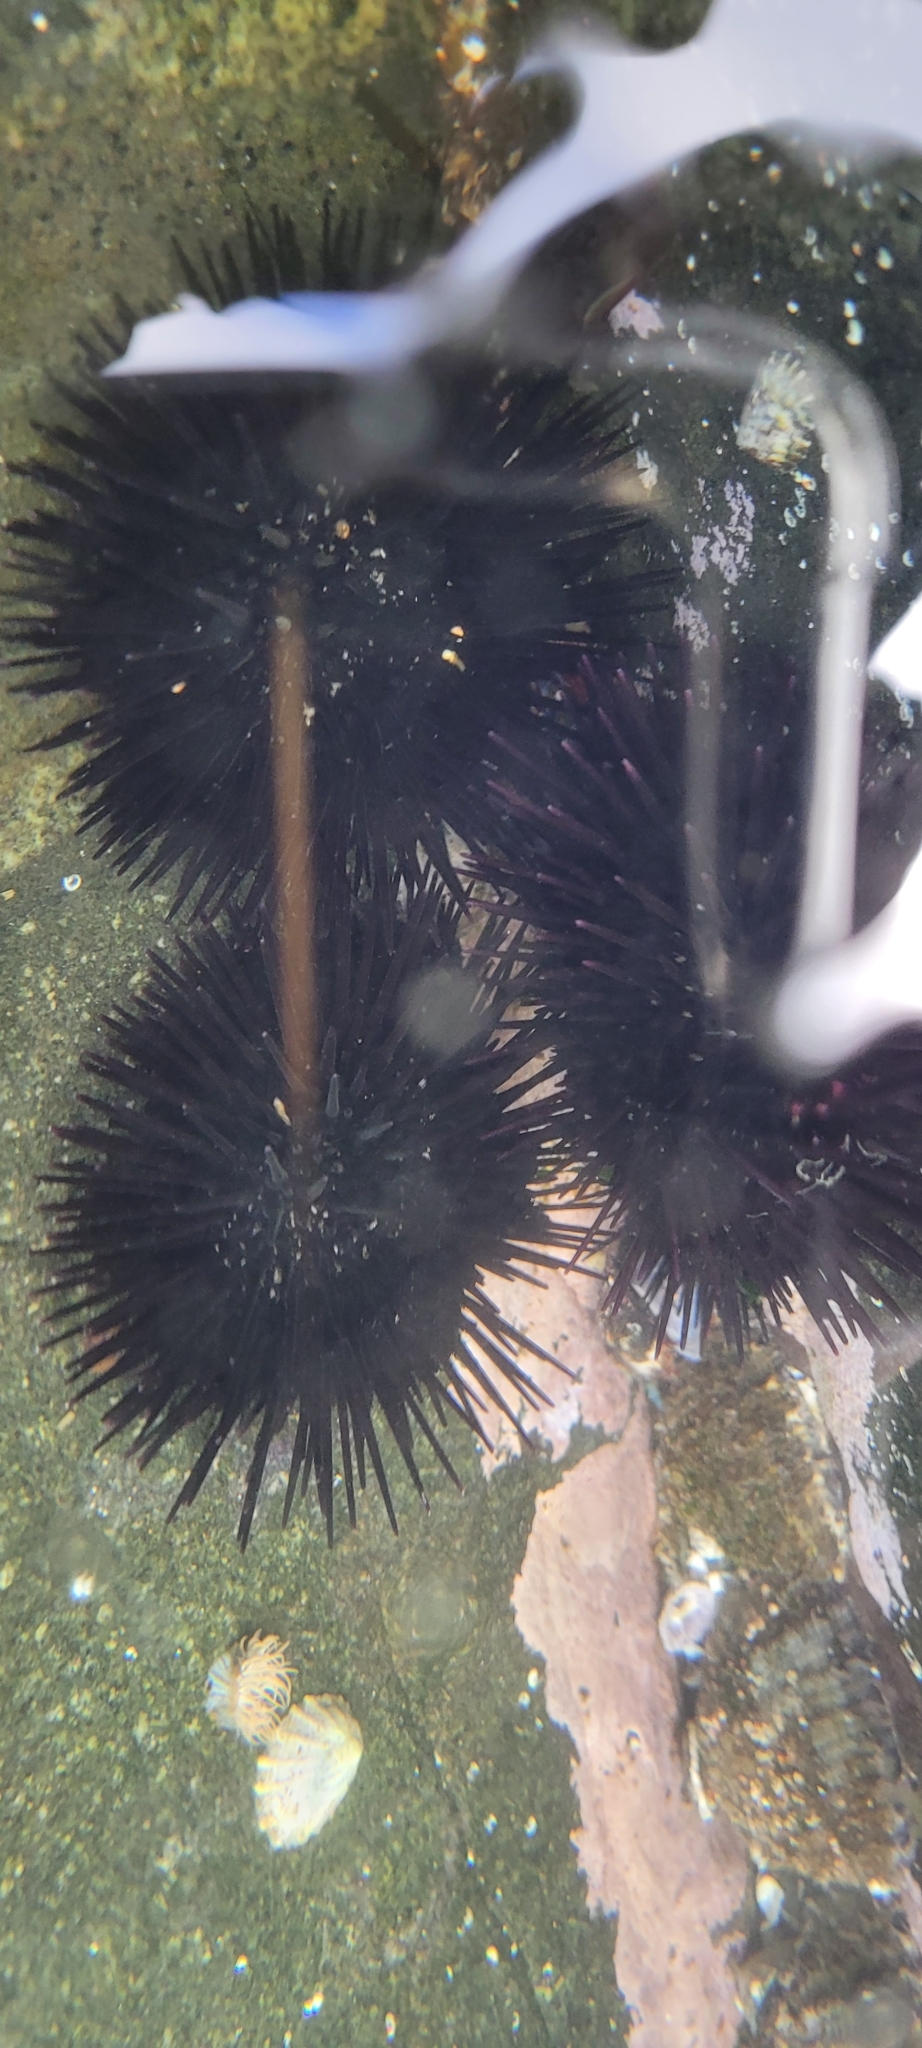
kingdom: Animalia
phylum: Echinodermata
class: Echinoidea
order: Arbacioida
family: Arbaciidae
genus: Tetrapygus
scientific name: Tetrapygus niger
